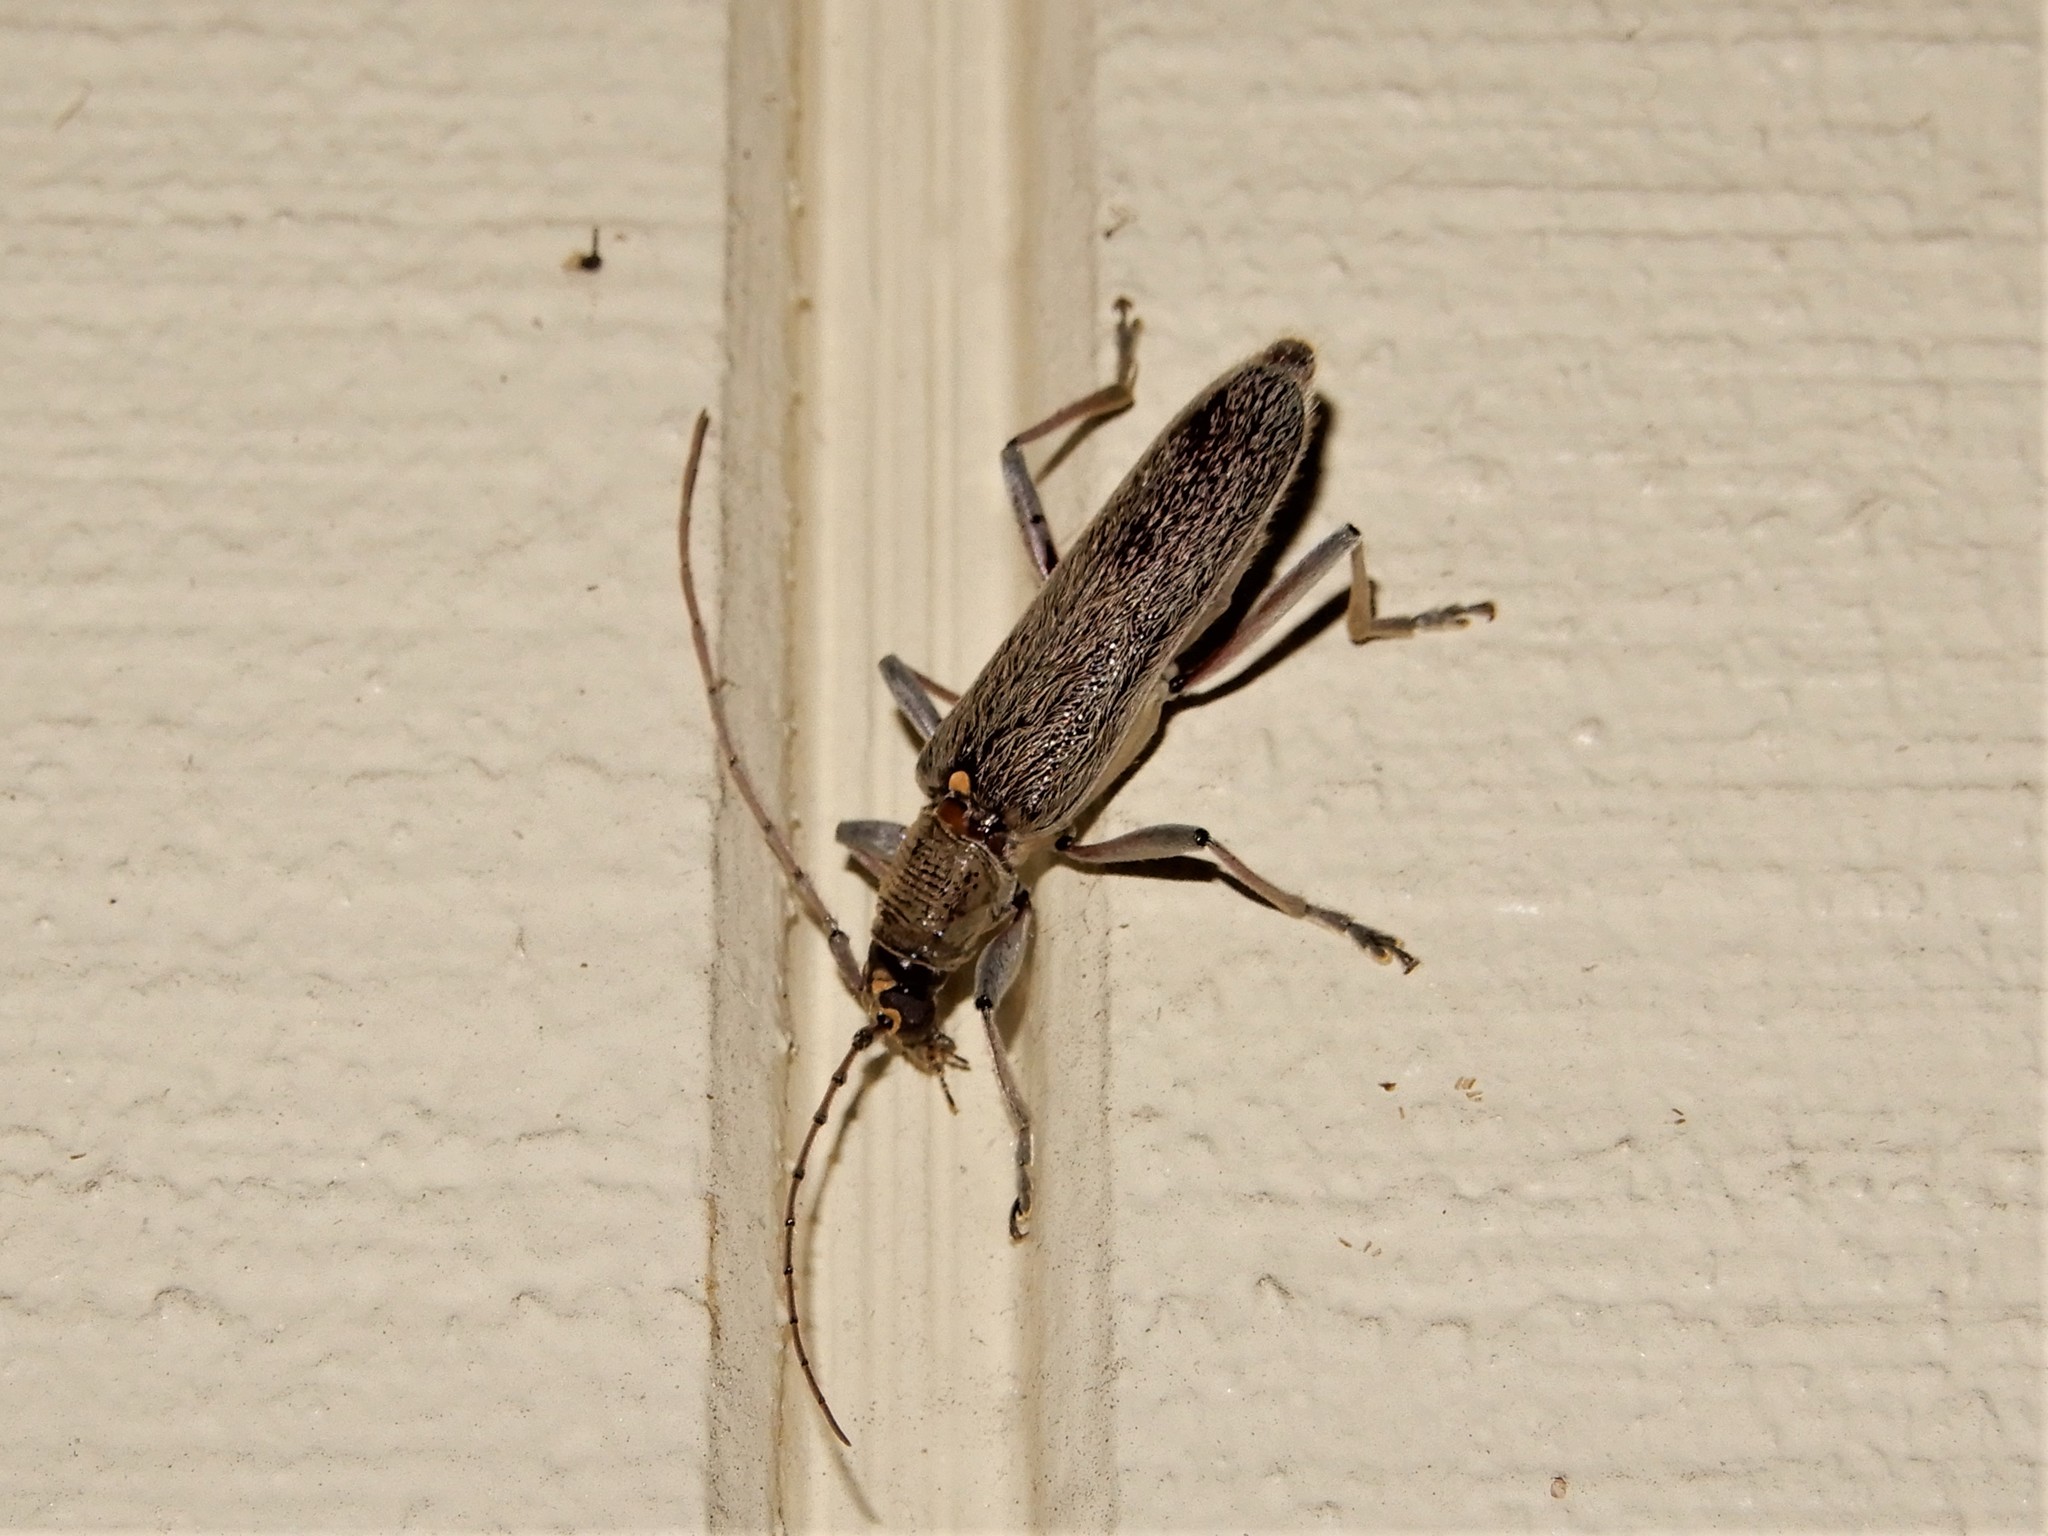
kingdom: Animalia
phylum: Arthropoda
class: Insecta
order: Coleoptera
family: Cerambycidae
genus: Oemona
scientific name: Oemona hirta
